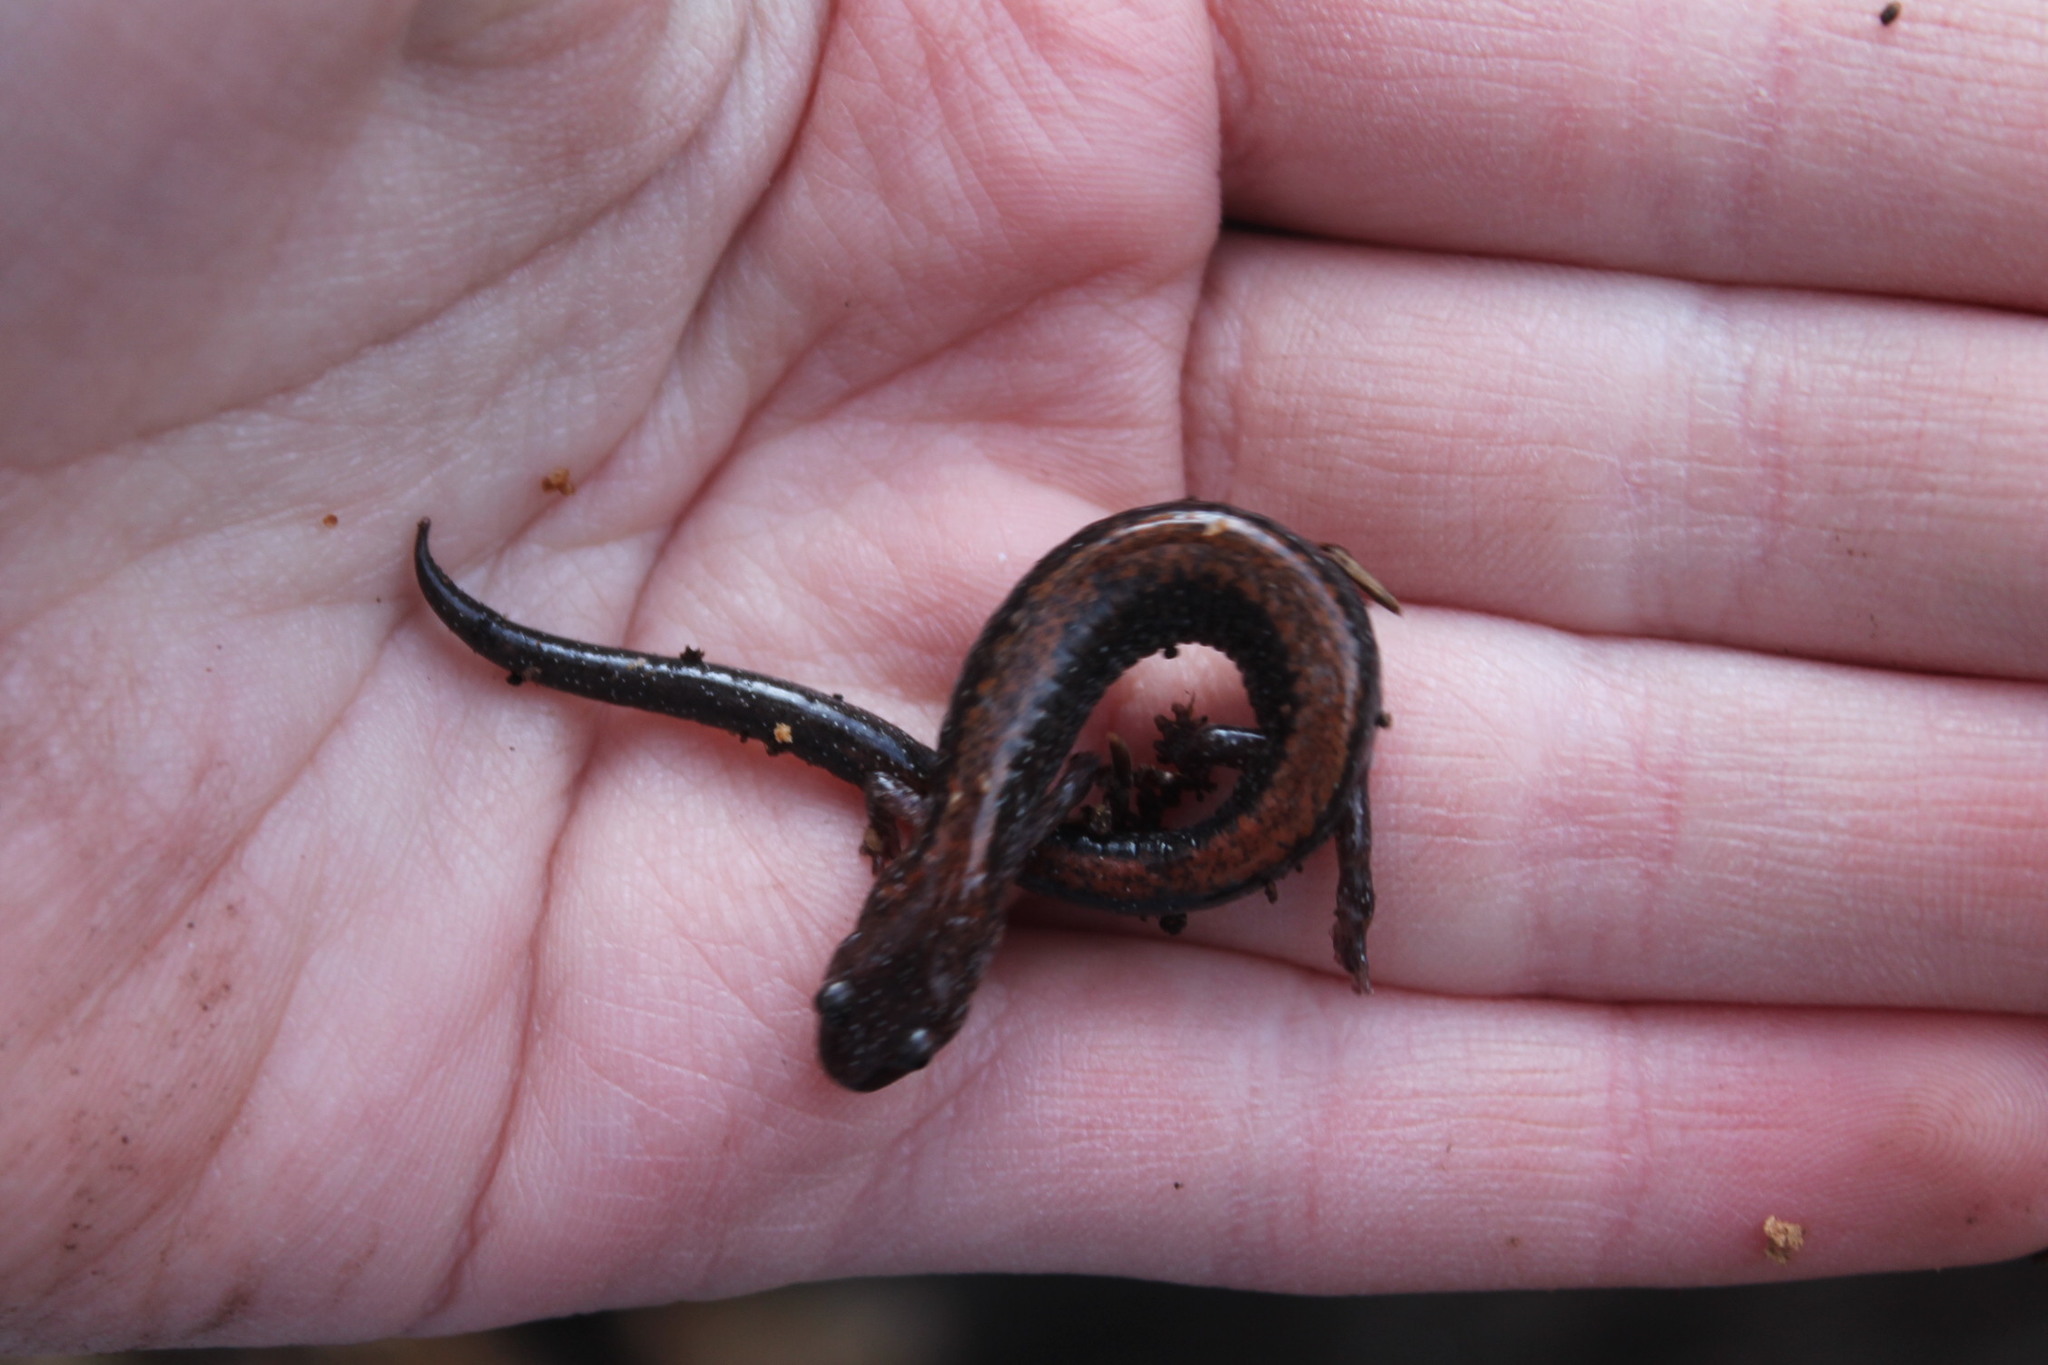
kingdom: Animalia
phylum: Chordata
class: Amphibia
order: Caudata
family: Plethodontidae
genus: Plethodon
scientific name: Plethodon cinereus
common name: Redback salamander
